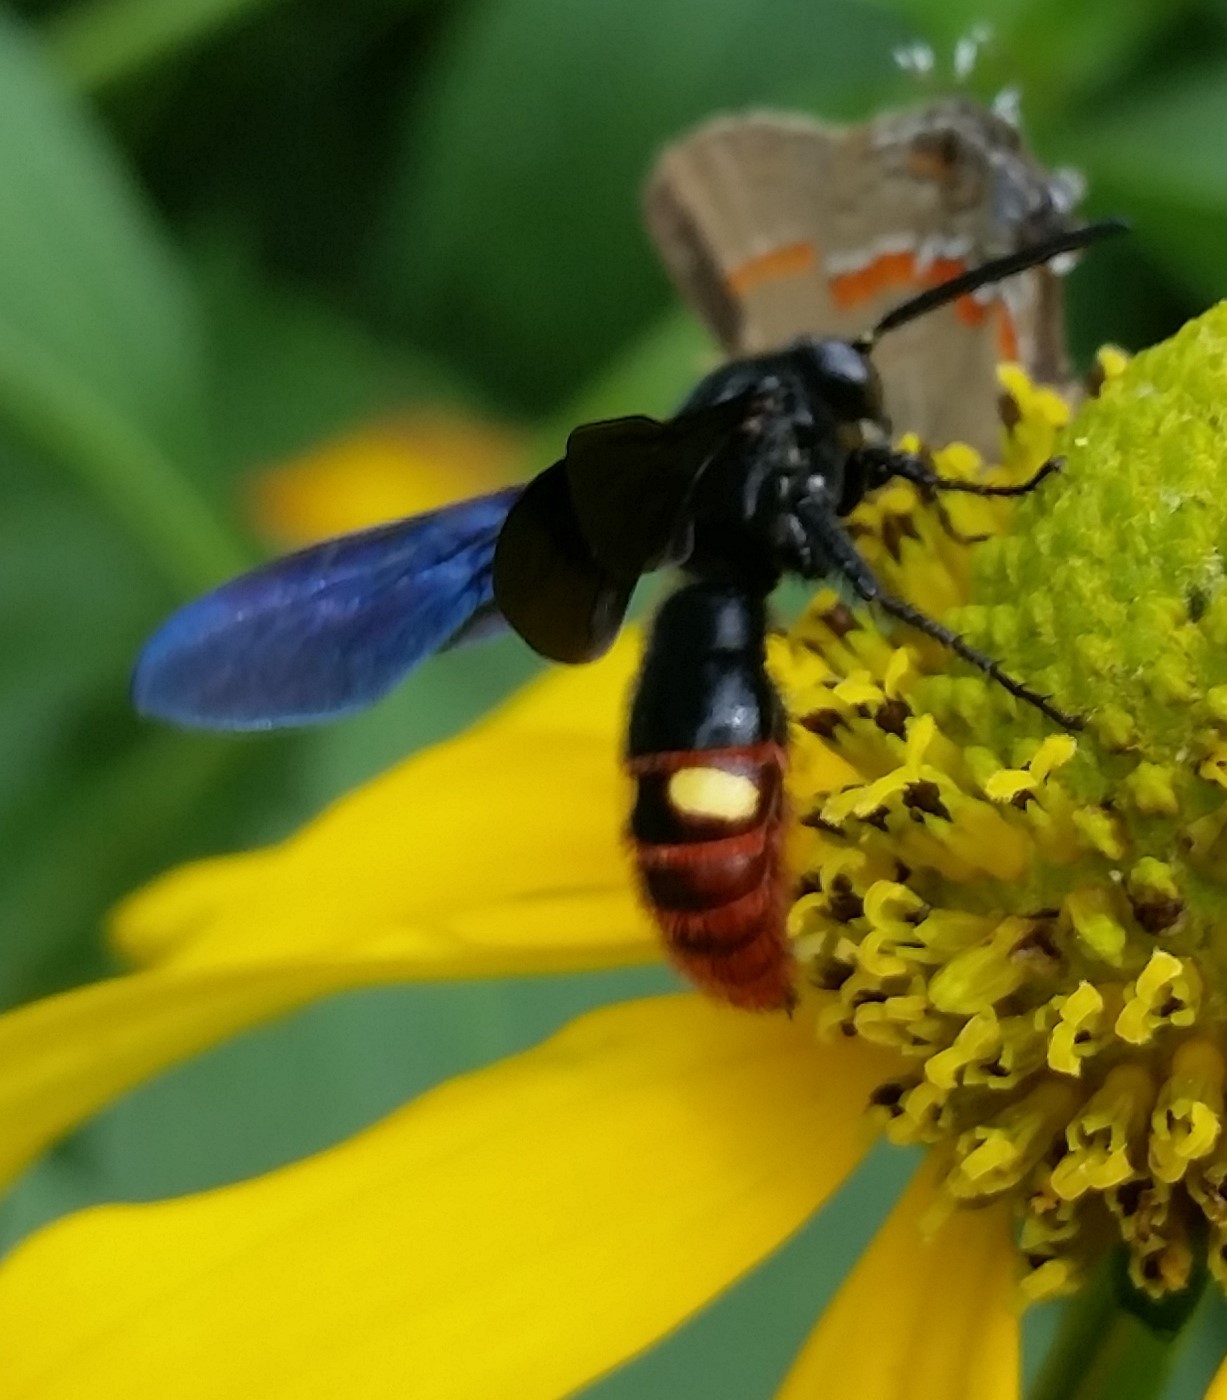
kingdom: Animalia
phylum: Arthropoda
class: Insecta
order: Hymenoptera
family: Scoliidae
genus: Scolia
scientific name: Scolia dubia
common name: Blue-winged scoliid wasp
